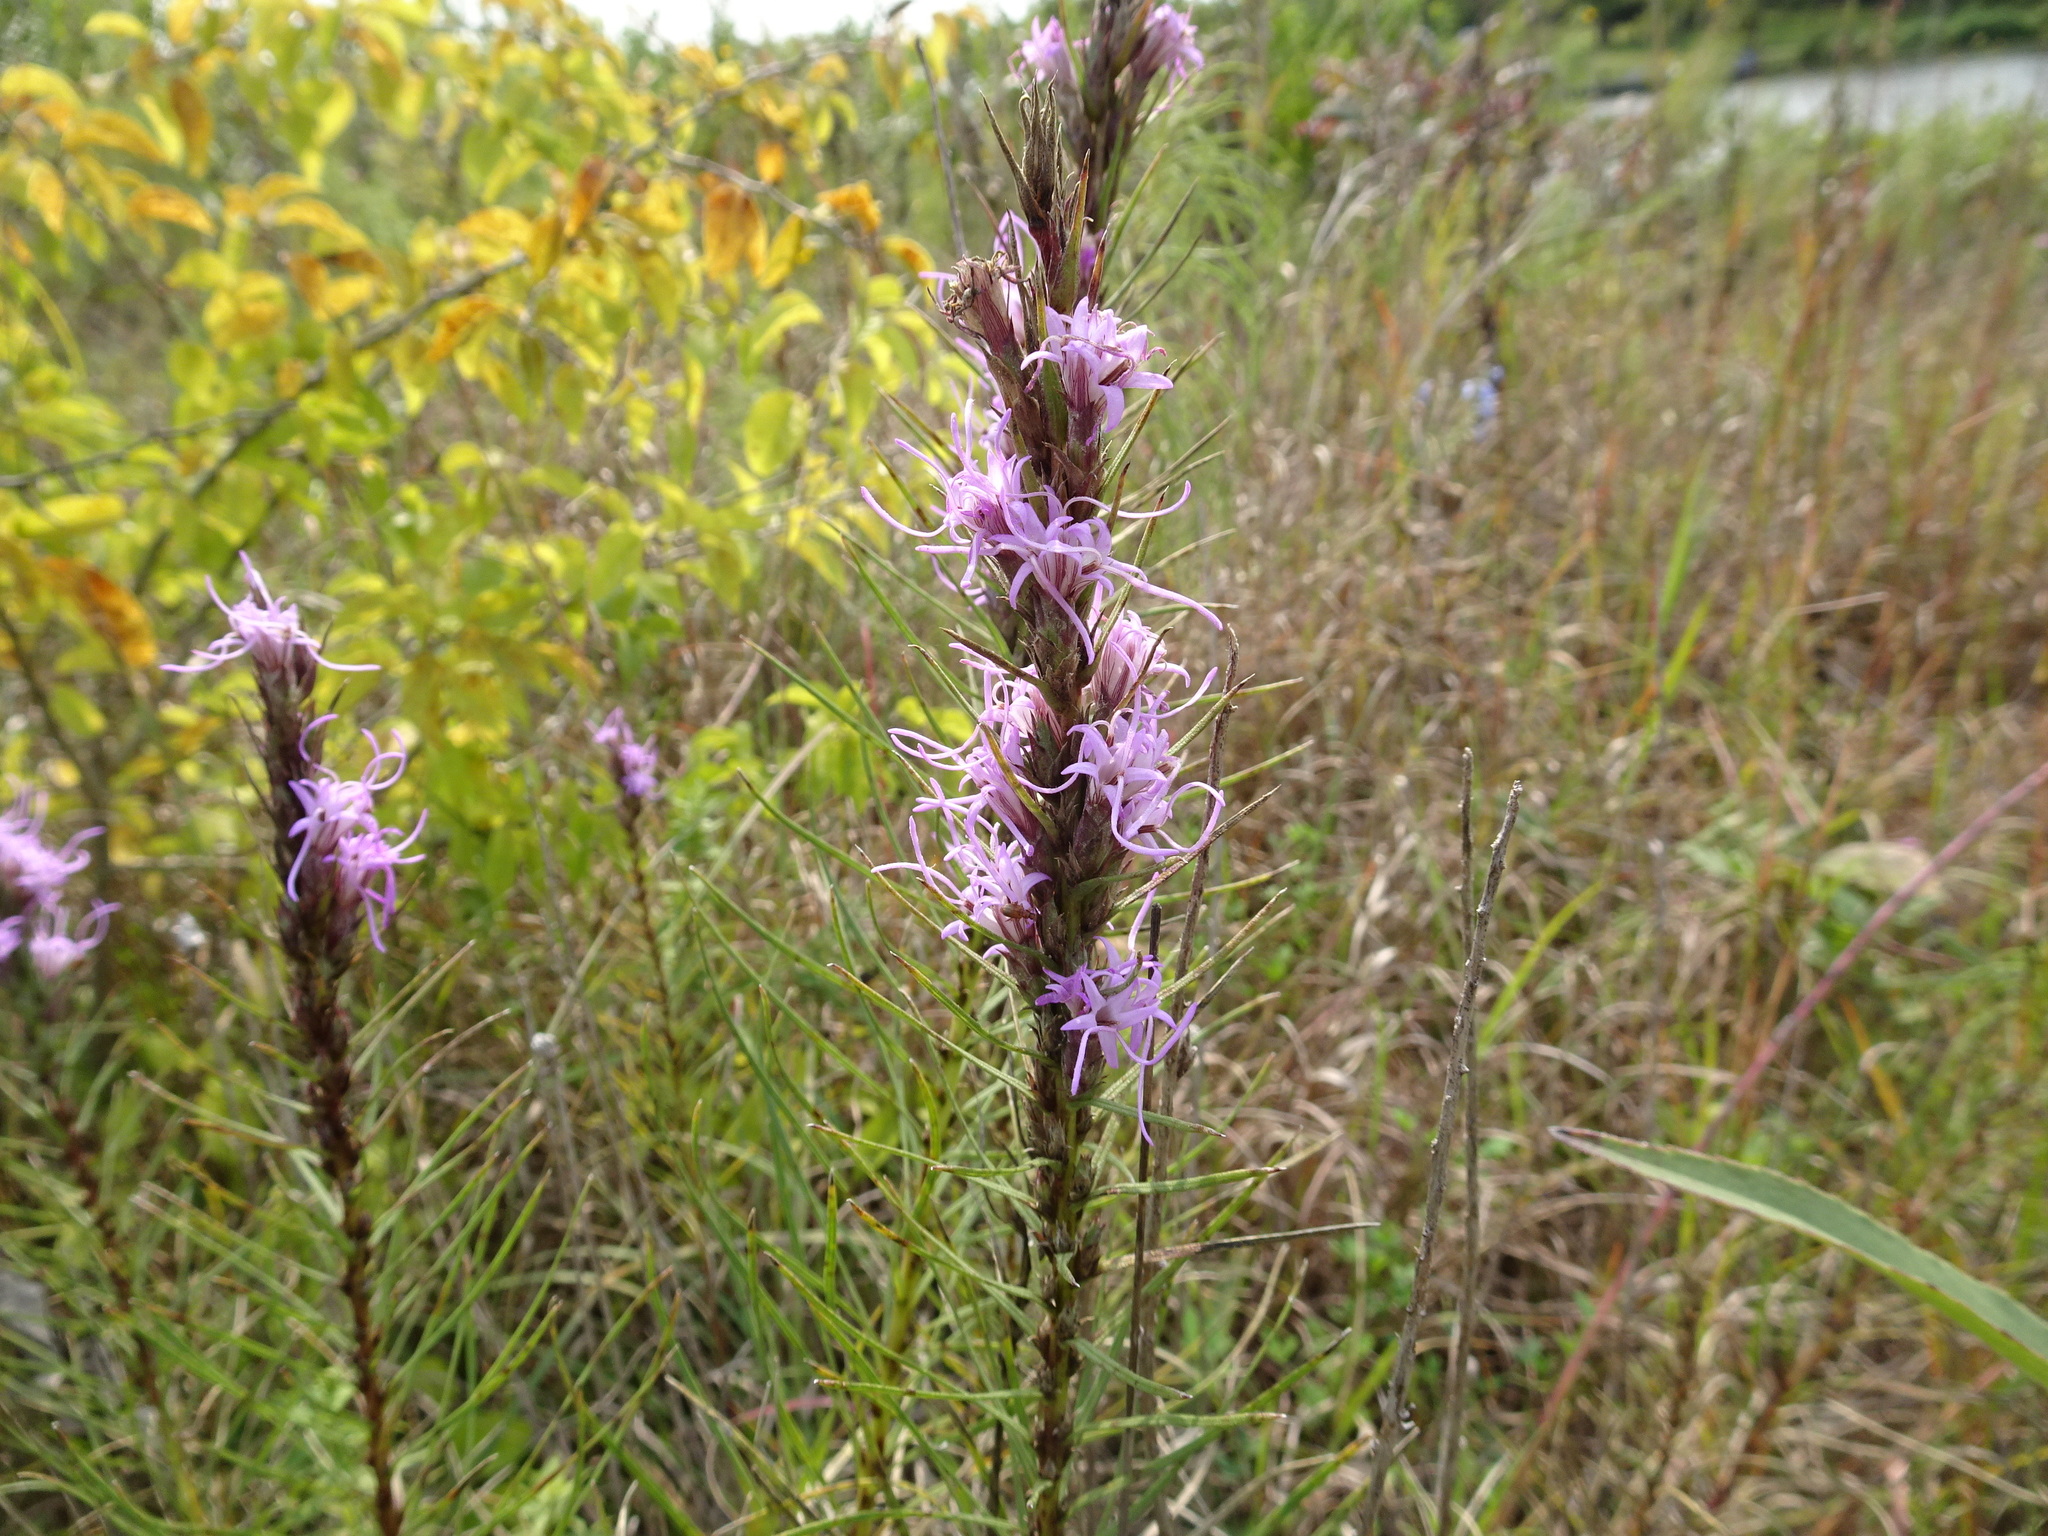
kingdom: Plantae
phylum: Tracheophyta
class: Magnoliopsida
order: Asterales
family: Asteraceae
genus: Liatris
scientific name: Liatris punctata
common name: Dotted gayfeather
